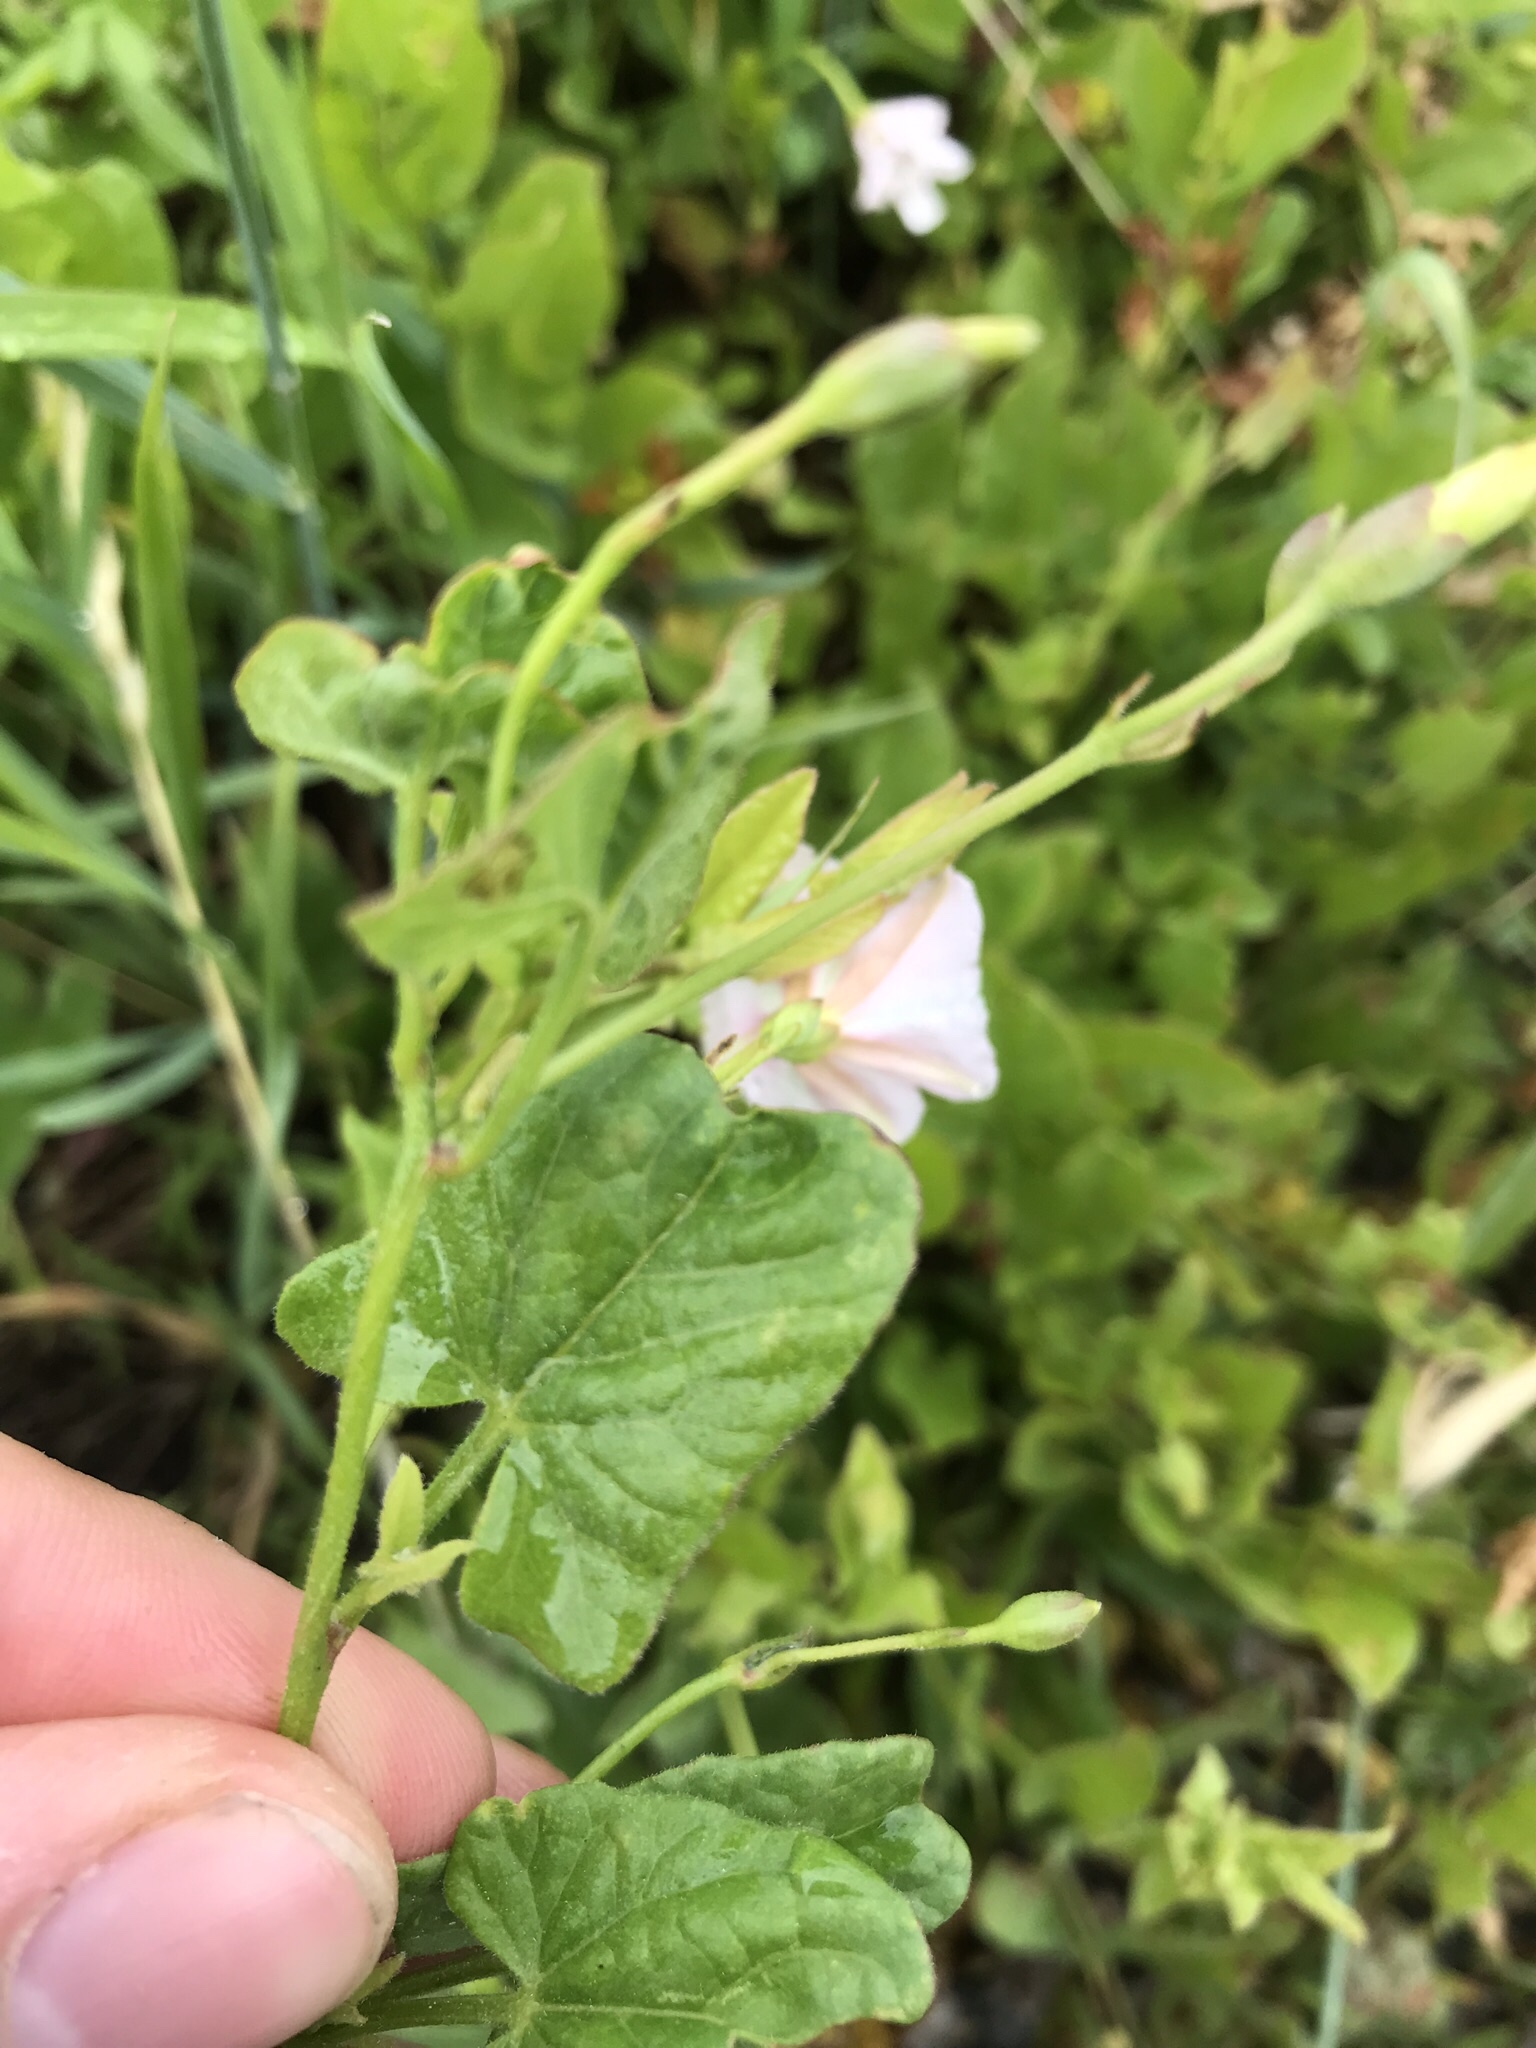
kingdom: Plantae
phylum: Tracheophyta
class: Magnoliopsida
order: Solanales
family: Convolvulaceae
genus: Convolvulus
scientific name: Convolvulus arvensis
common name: Field bindweed
